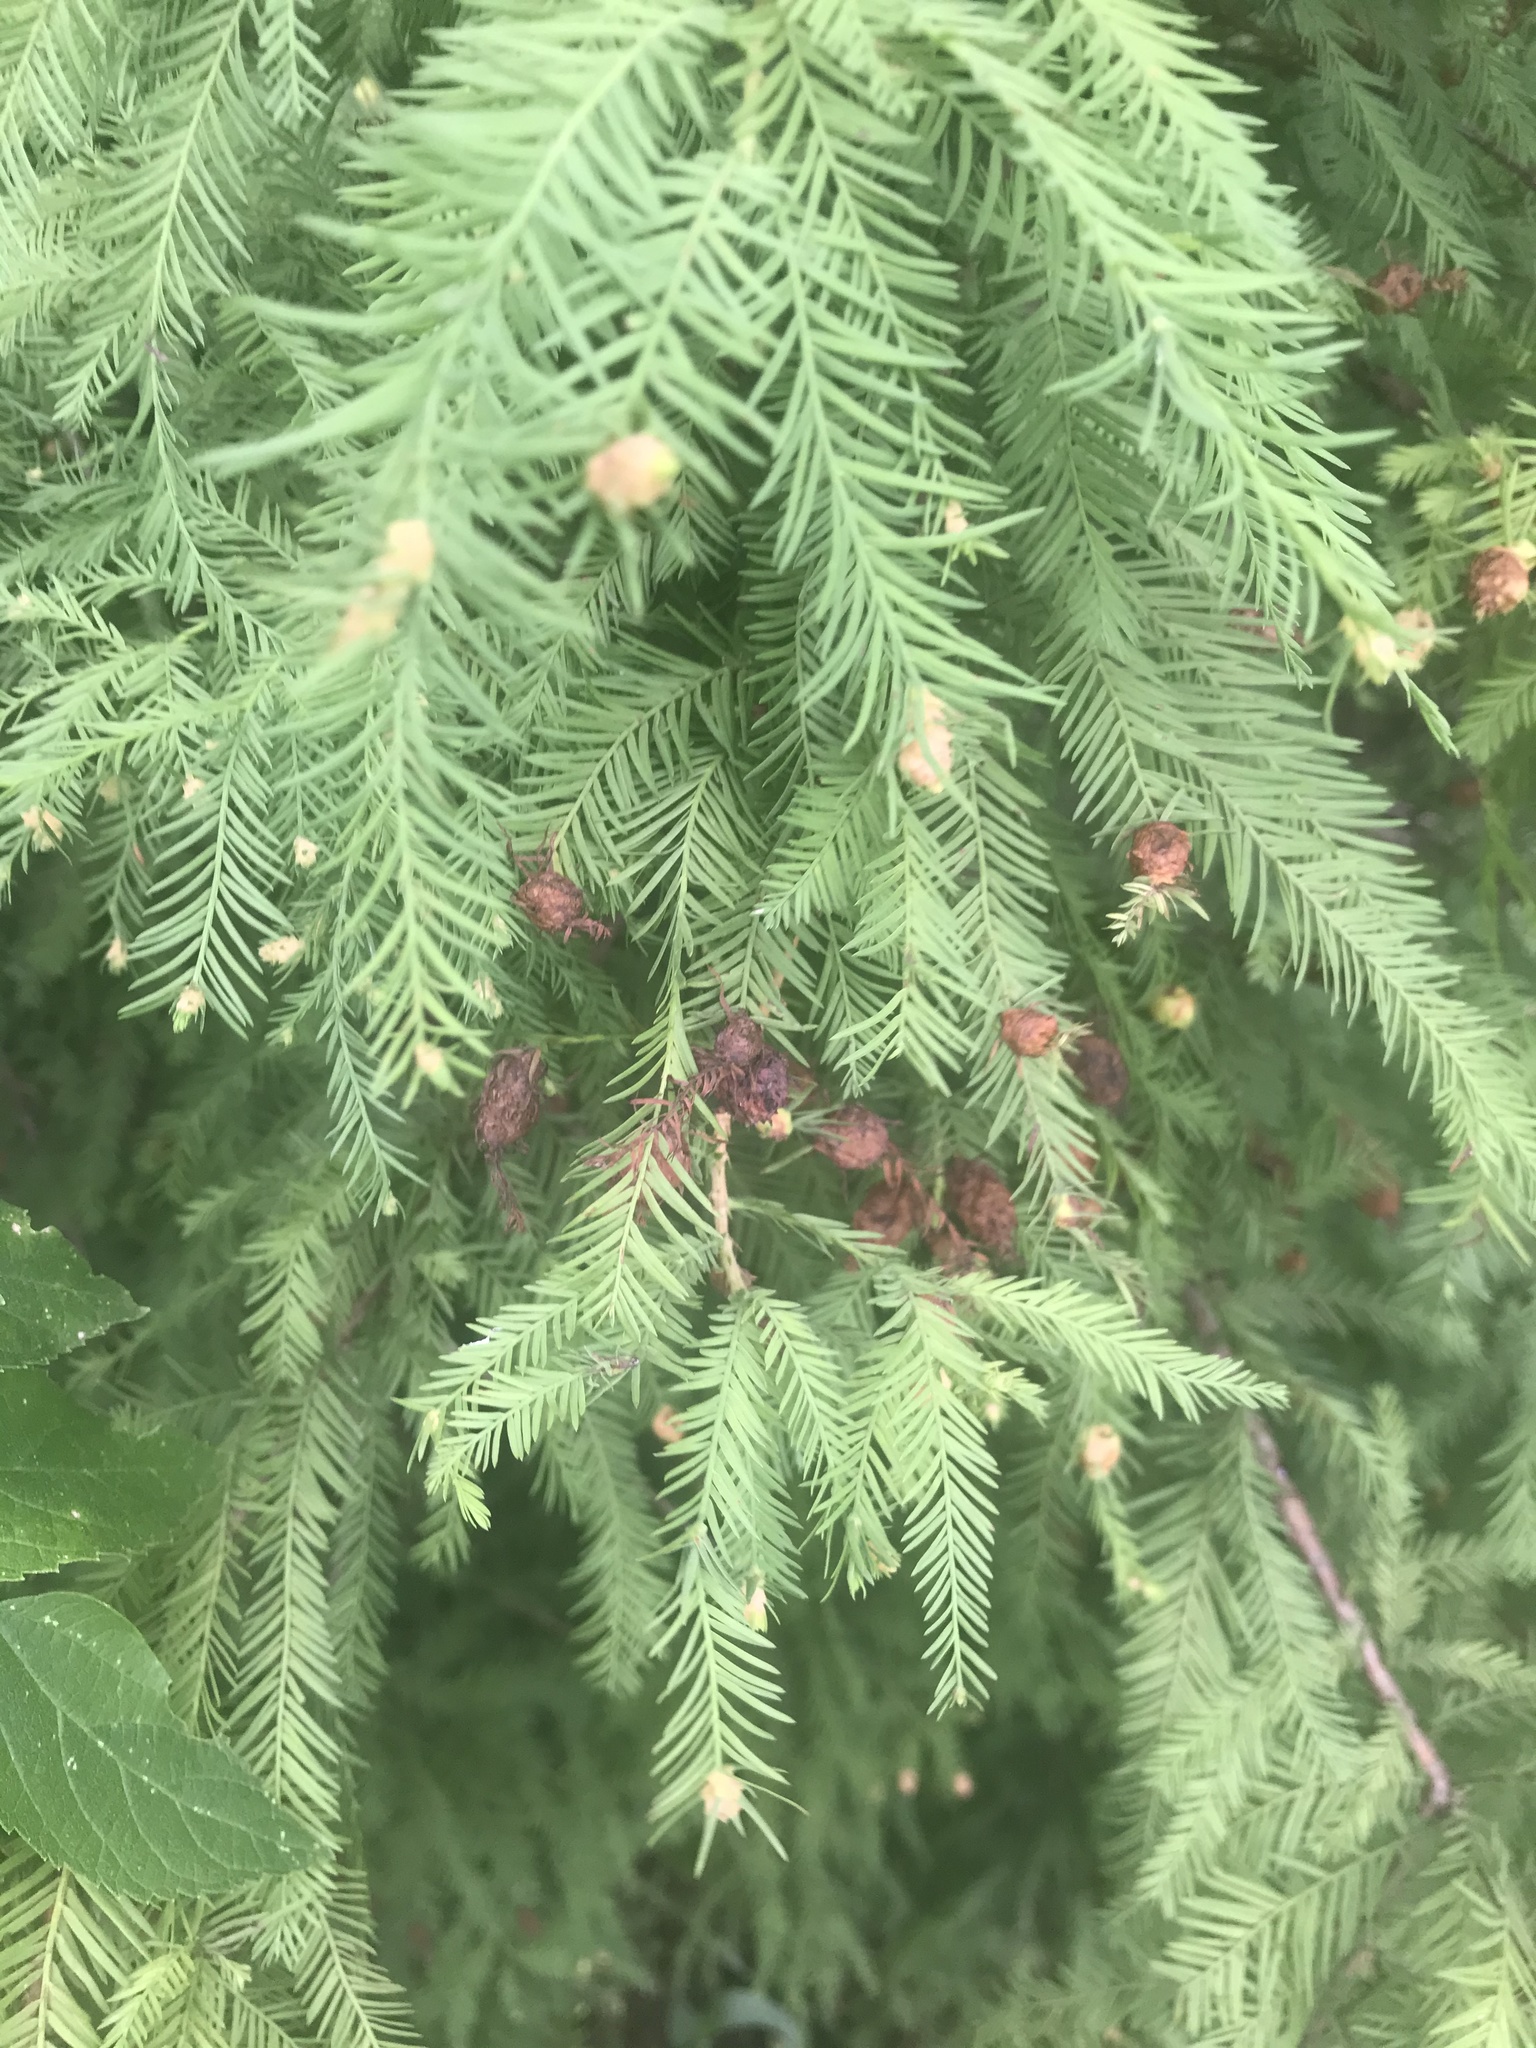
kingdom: Animalia
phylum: Arthropoda
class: Insecta
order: Diptera
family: Cecidomyiidae
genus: Taxodiomyia
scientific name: Taxodiomyia cupressiananassa
